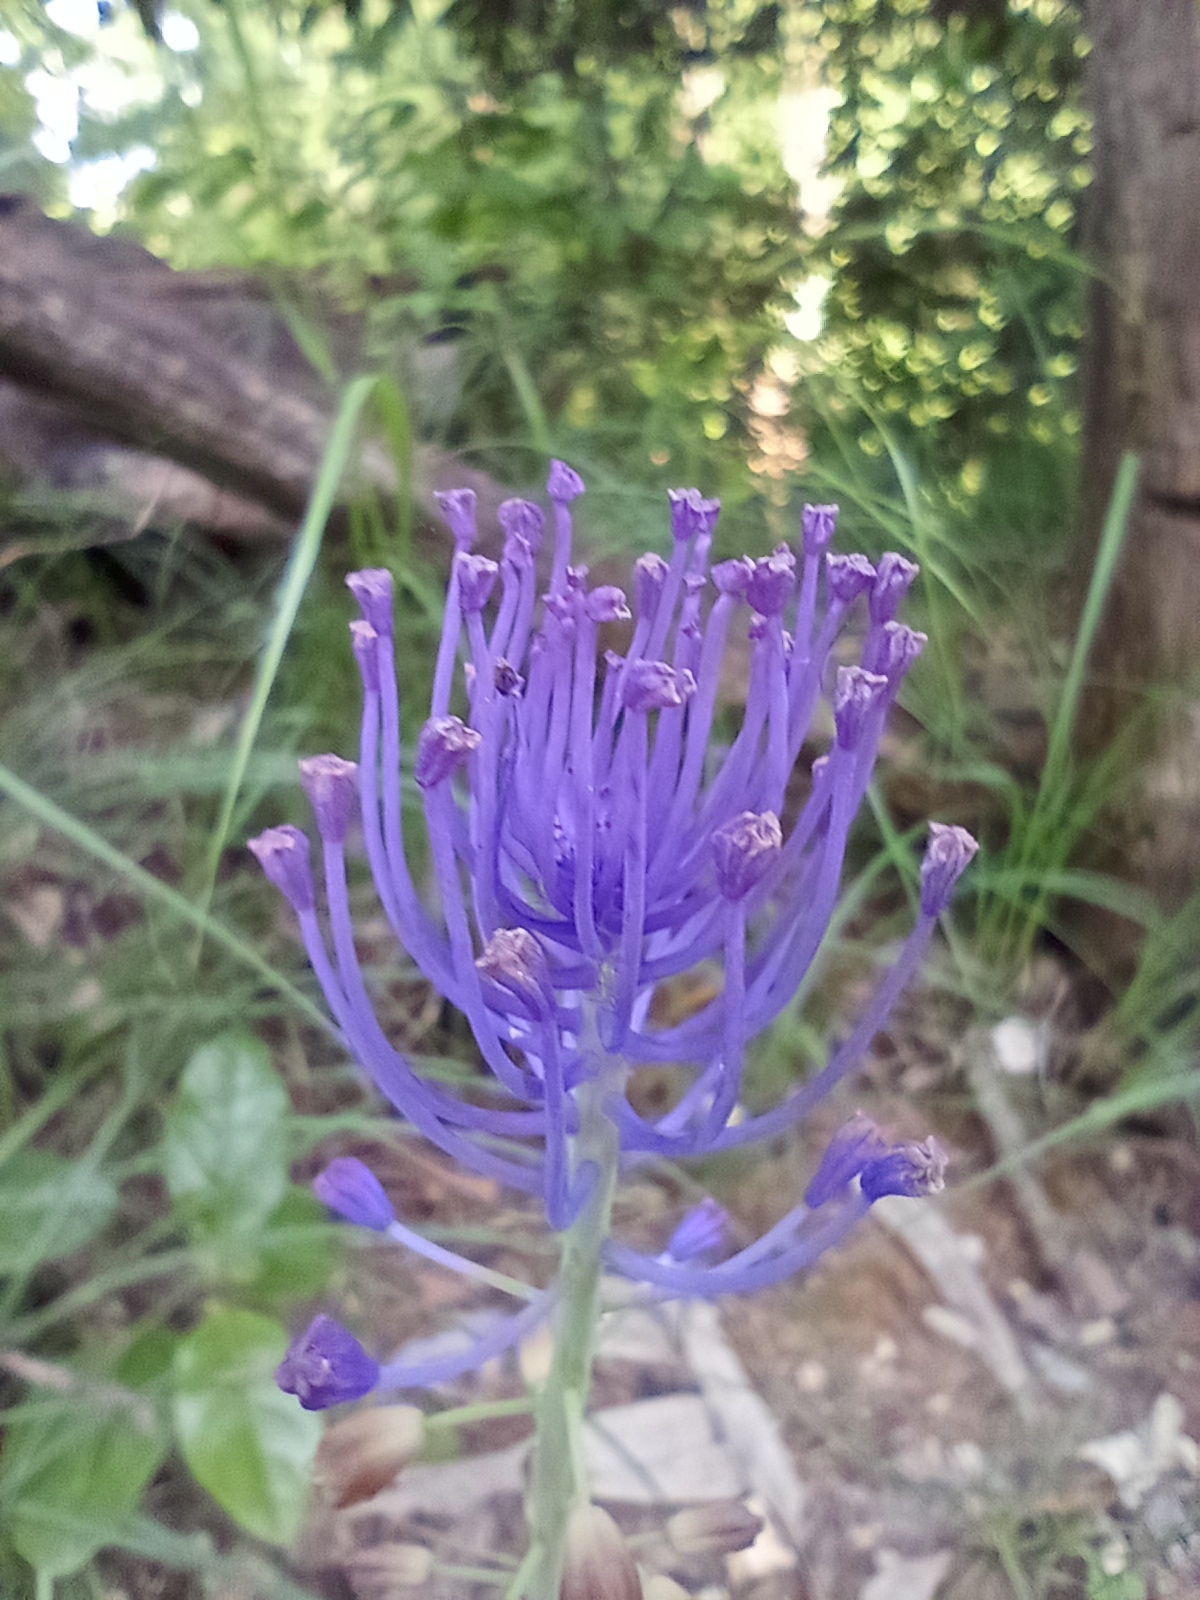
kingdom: Plantae
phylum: Tracheophyta
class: Liliopsida
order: Asparagales
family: Asparagaceae
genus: Muscari
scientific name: Muscari comosum
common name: Tassel hyacinth
